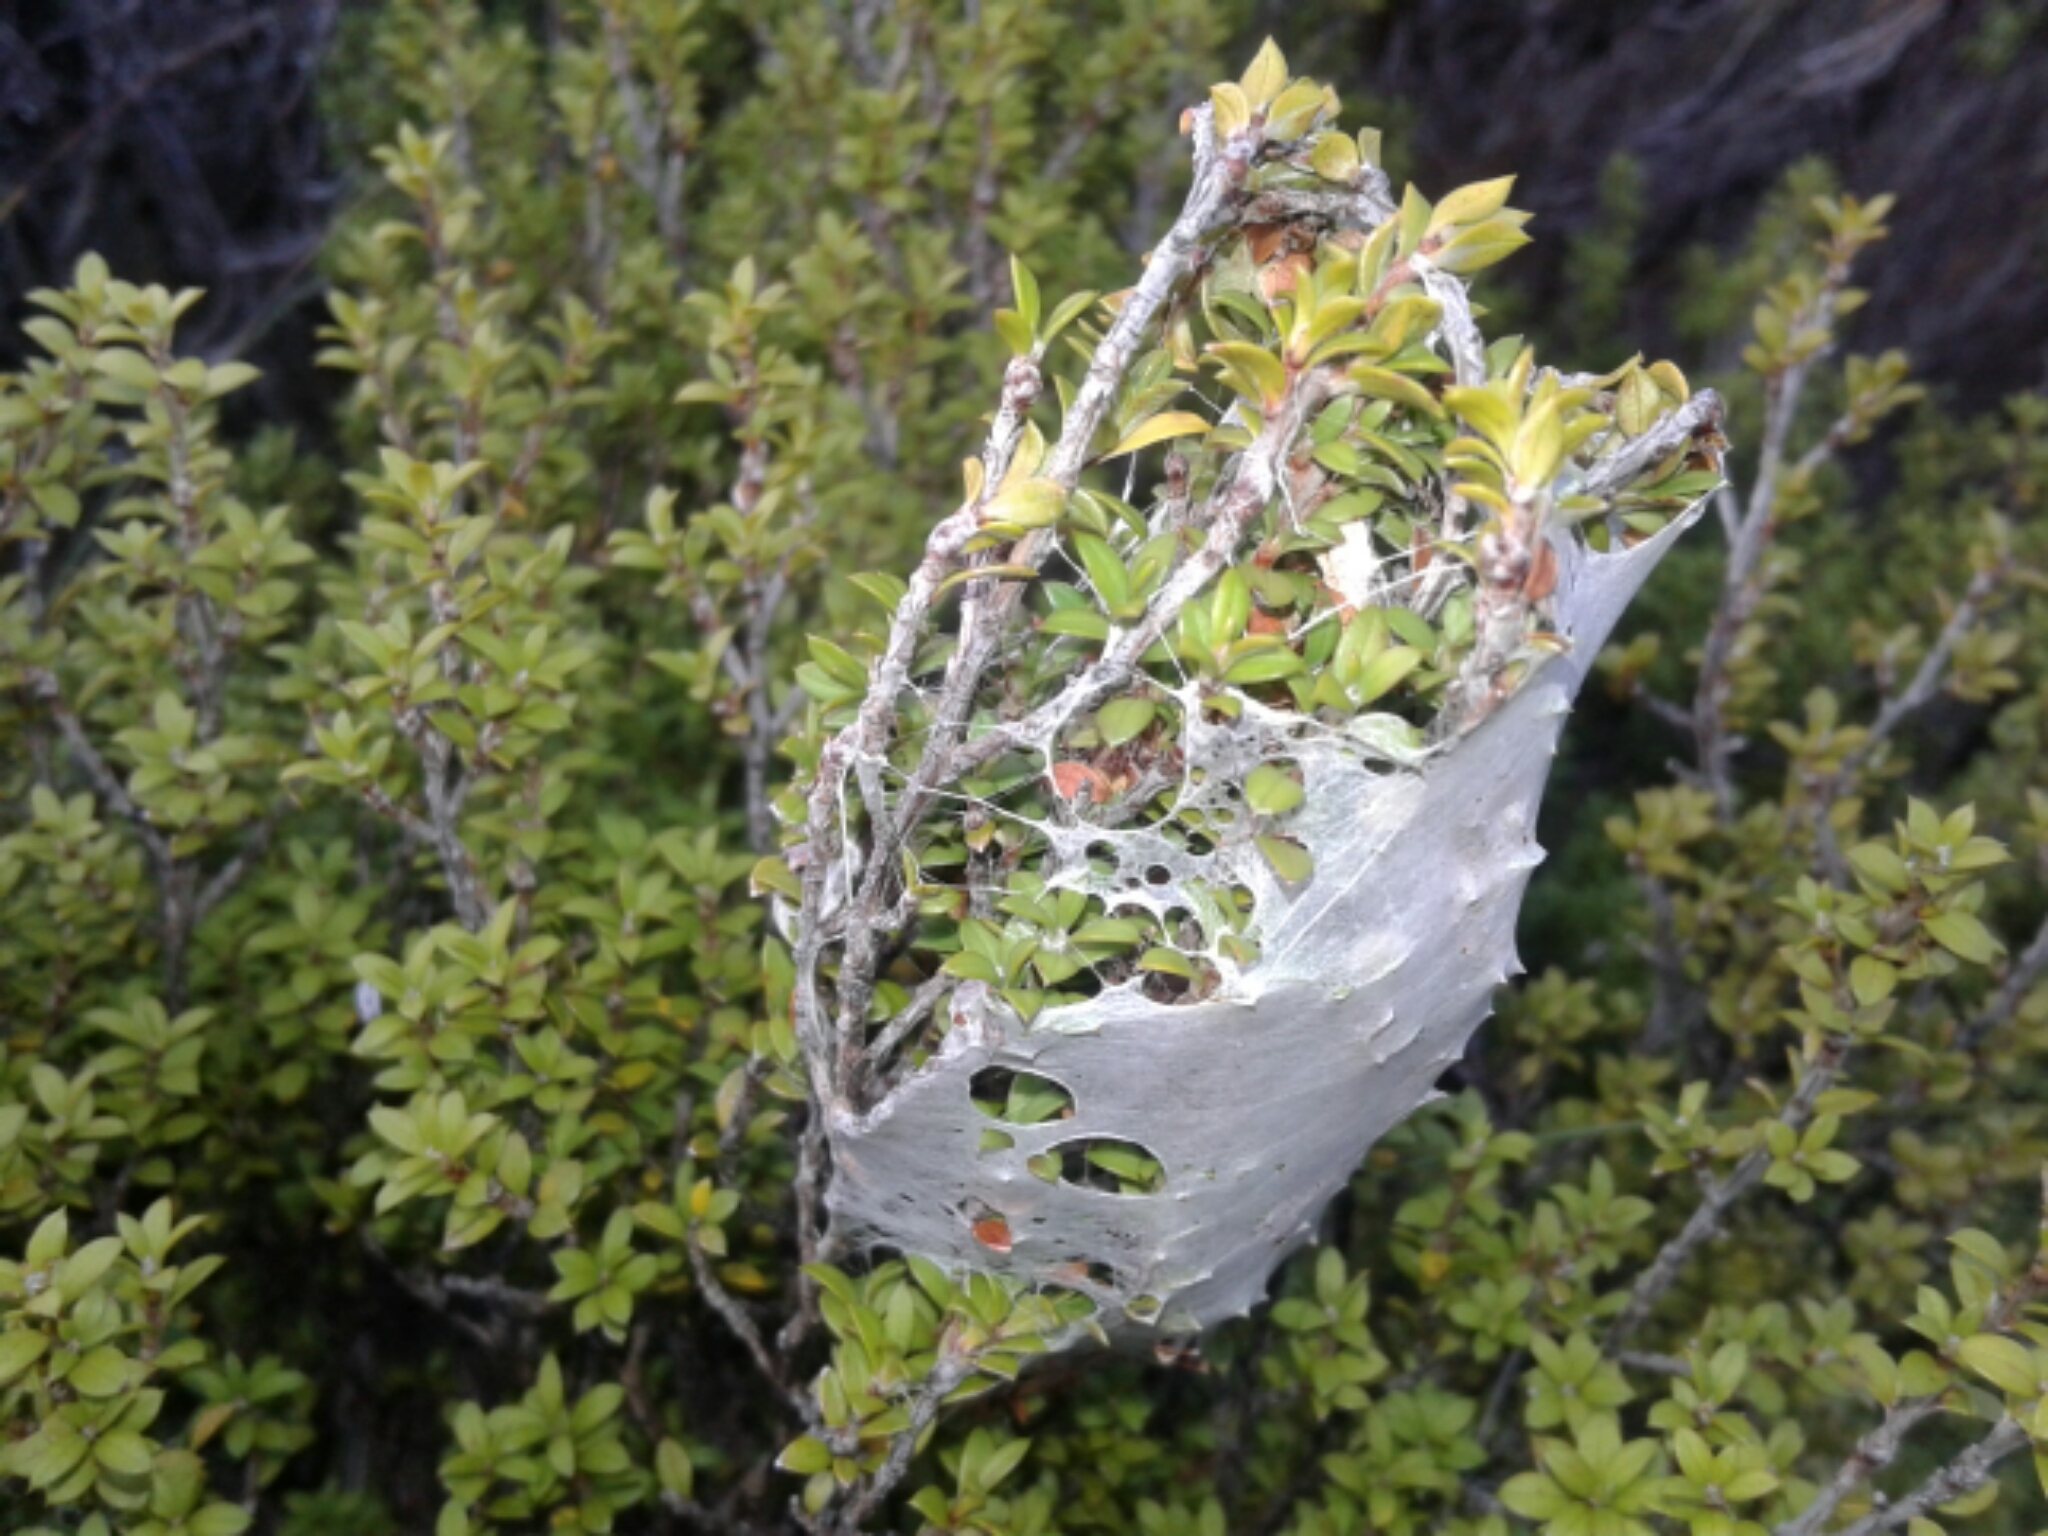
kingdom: Animalia
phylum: Arthropoda
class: Arachnida
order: Araneae
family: Pisauridae
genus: Dolomedes
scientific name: Dolomedes minor
